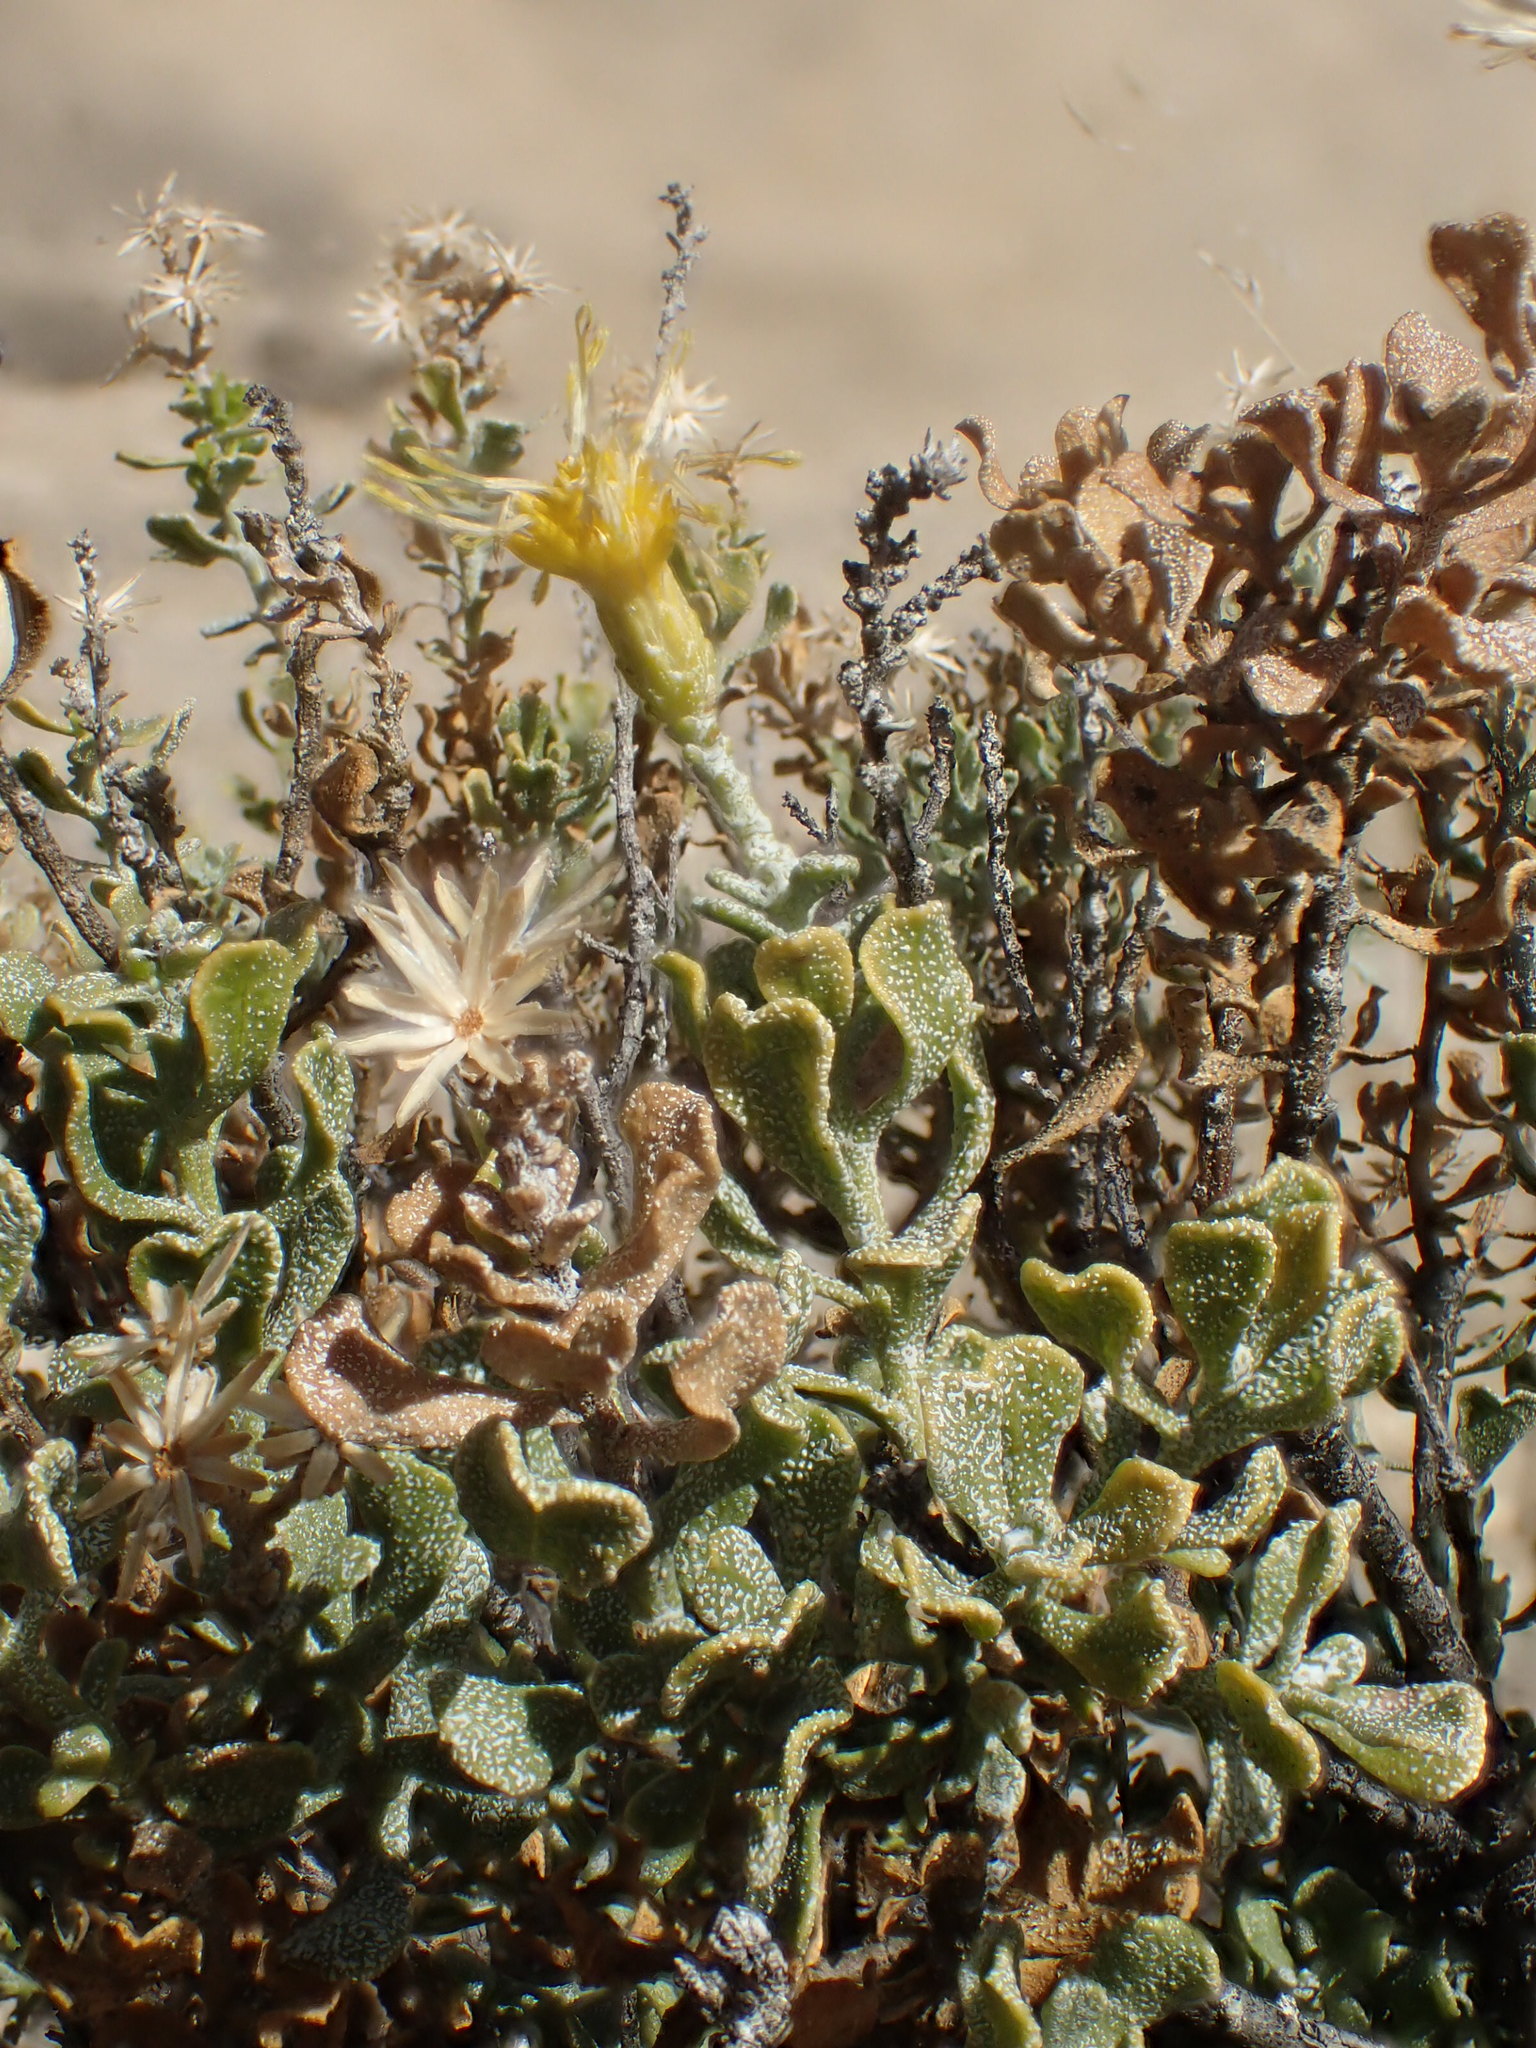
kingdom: Plantae
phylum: Tracheophyta
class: Magnoliopsida
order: Asterales
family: Asteraceae
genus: Ericameria
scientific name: Ericameria cuneata
